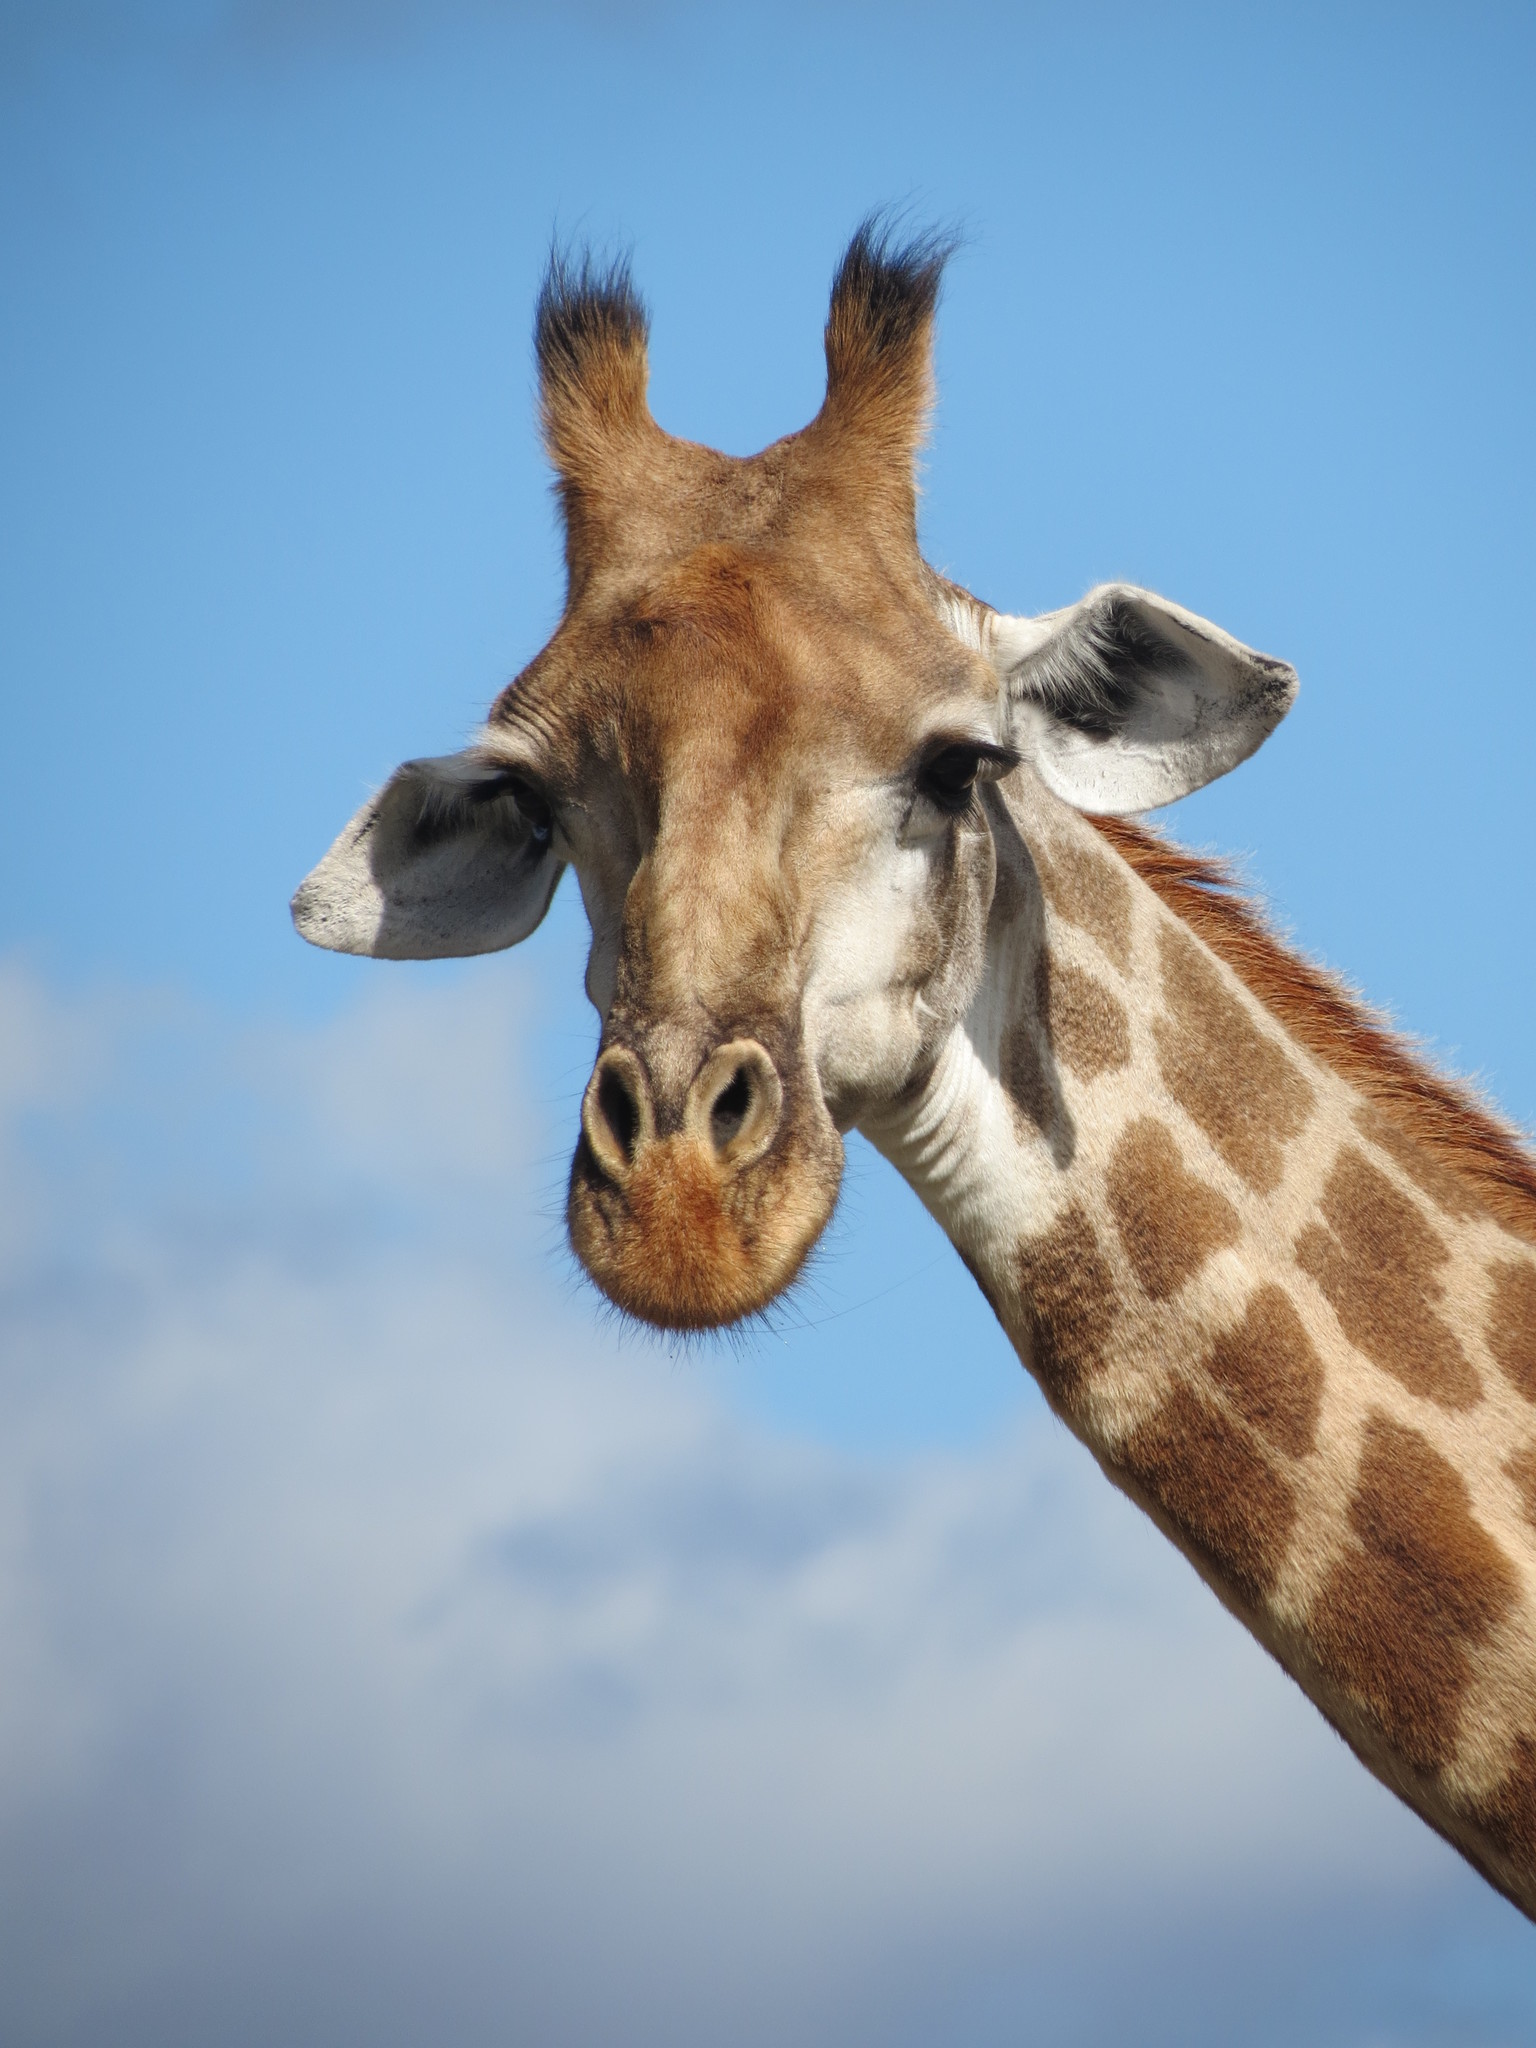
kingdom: Animalia
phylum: Chordata
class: Mammalia
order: Artiodactyla
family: Giraffidae
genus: Giraffa
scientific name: Giraffa giraffa
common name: Southern giraffe
